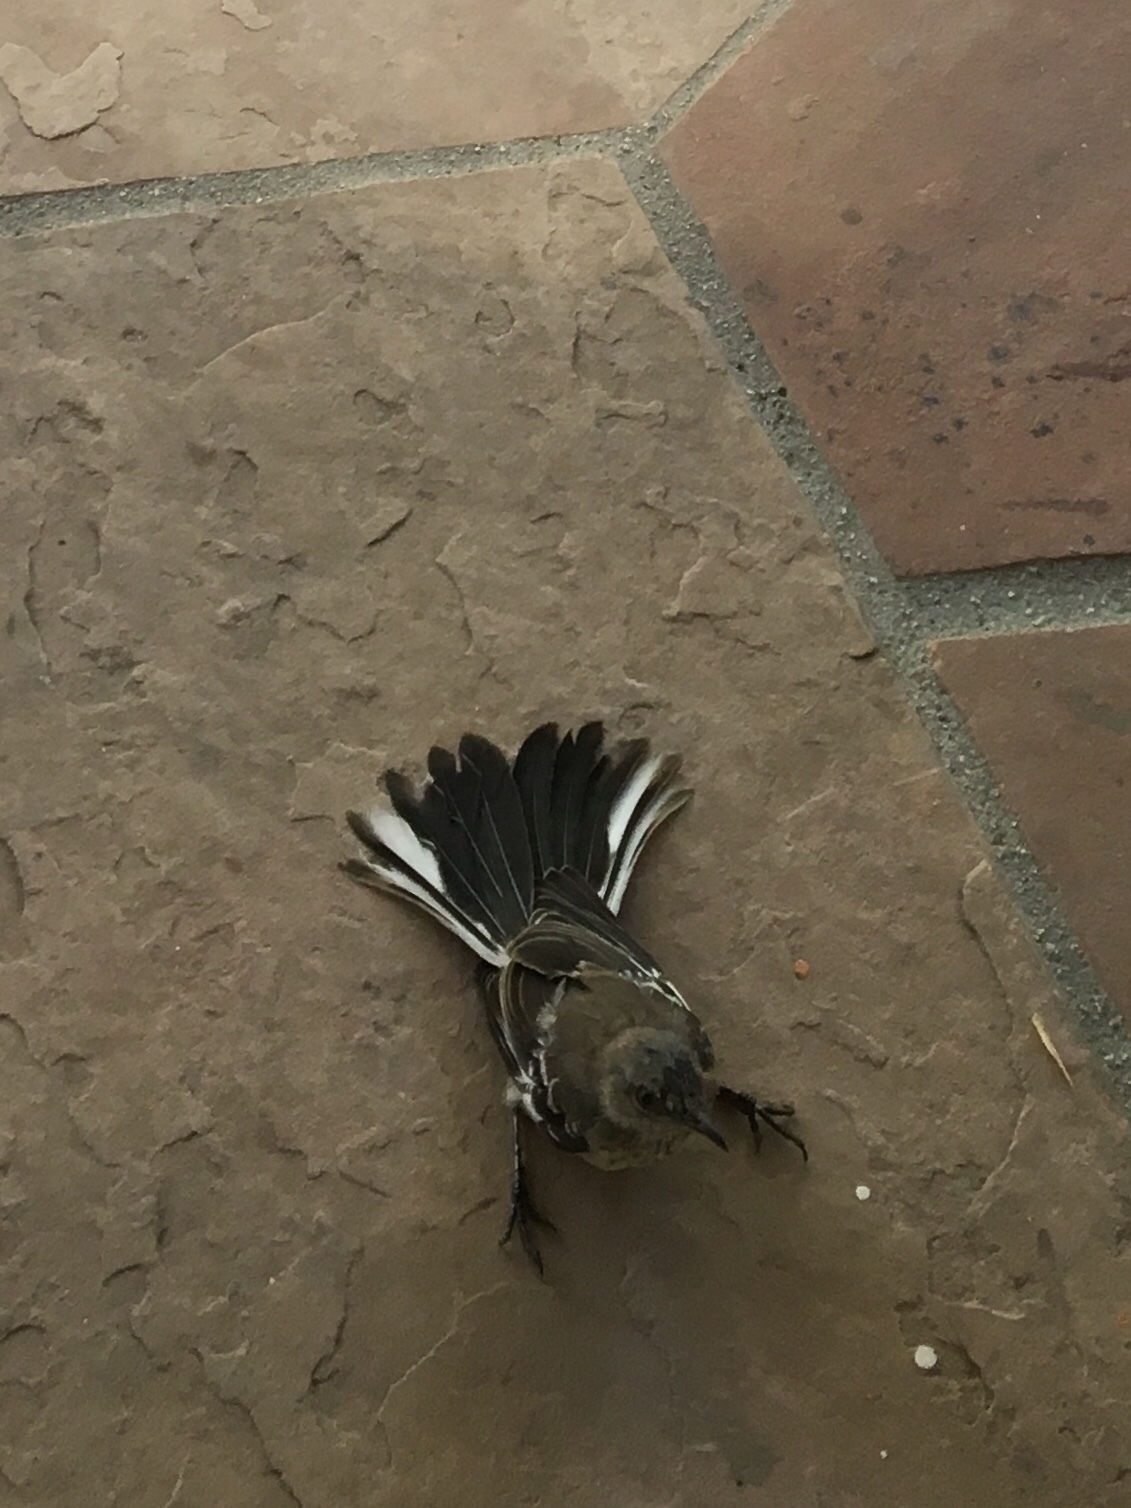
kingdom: Animalia
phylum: Chordata
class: Aves
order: Passeriformes
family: Mimidae
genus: Mimus
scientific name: Mimus polyglottos
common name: Northern mockingbird
